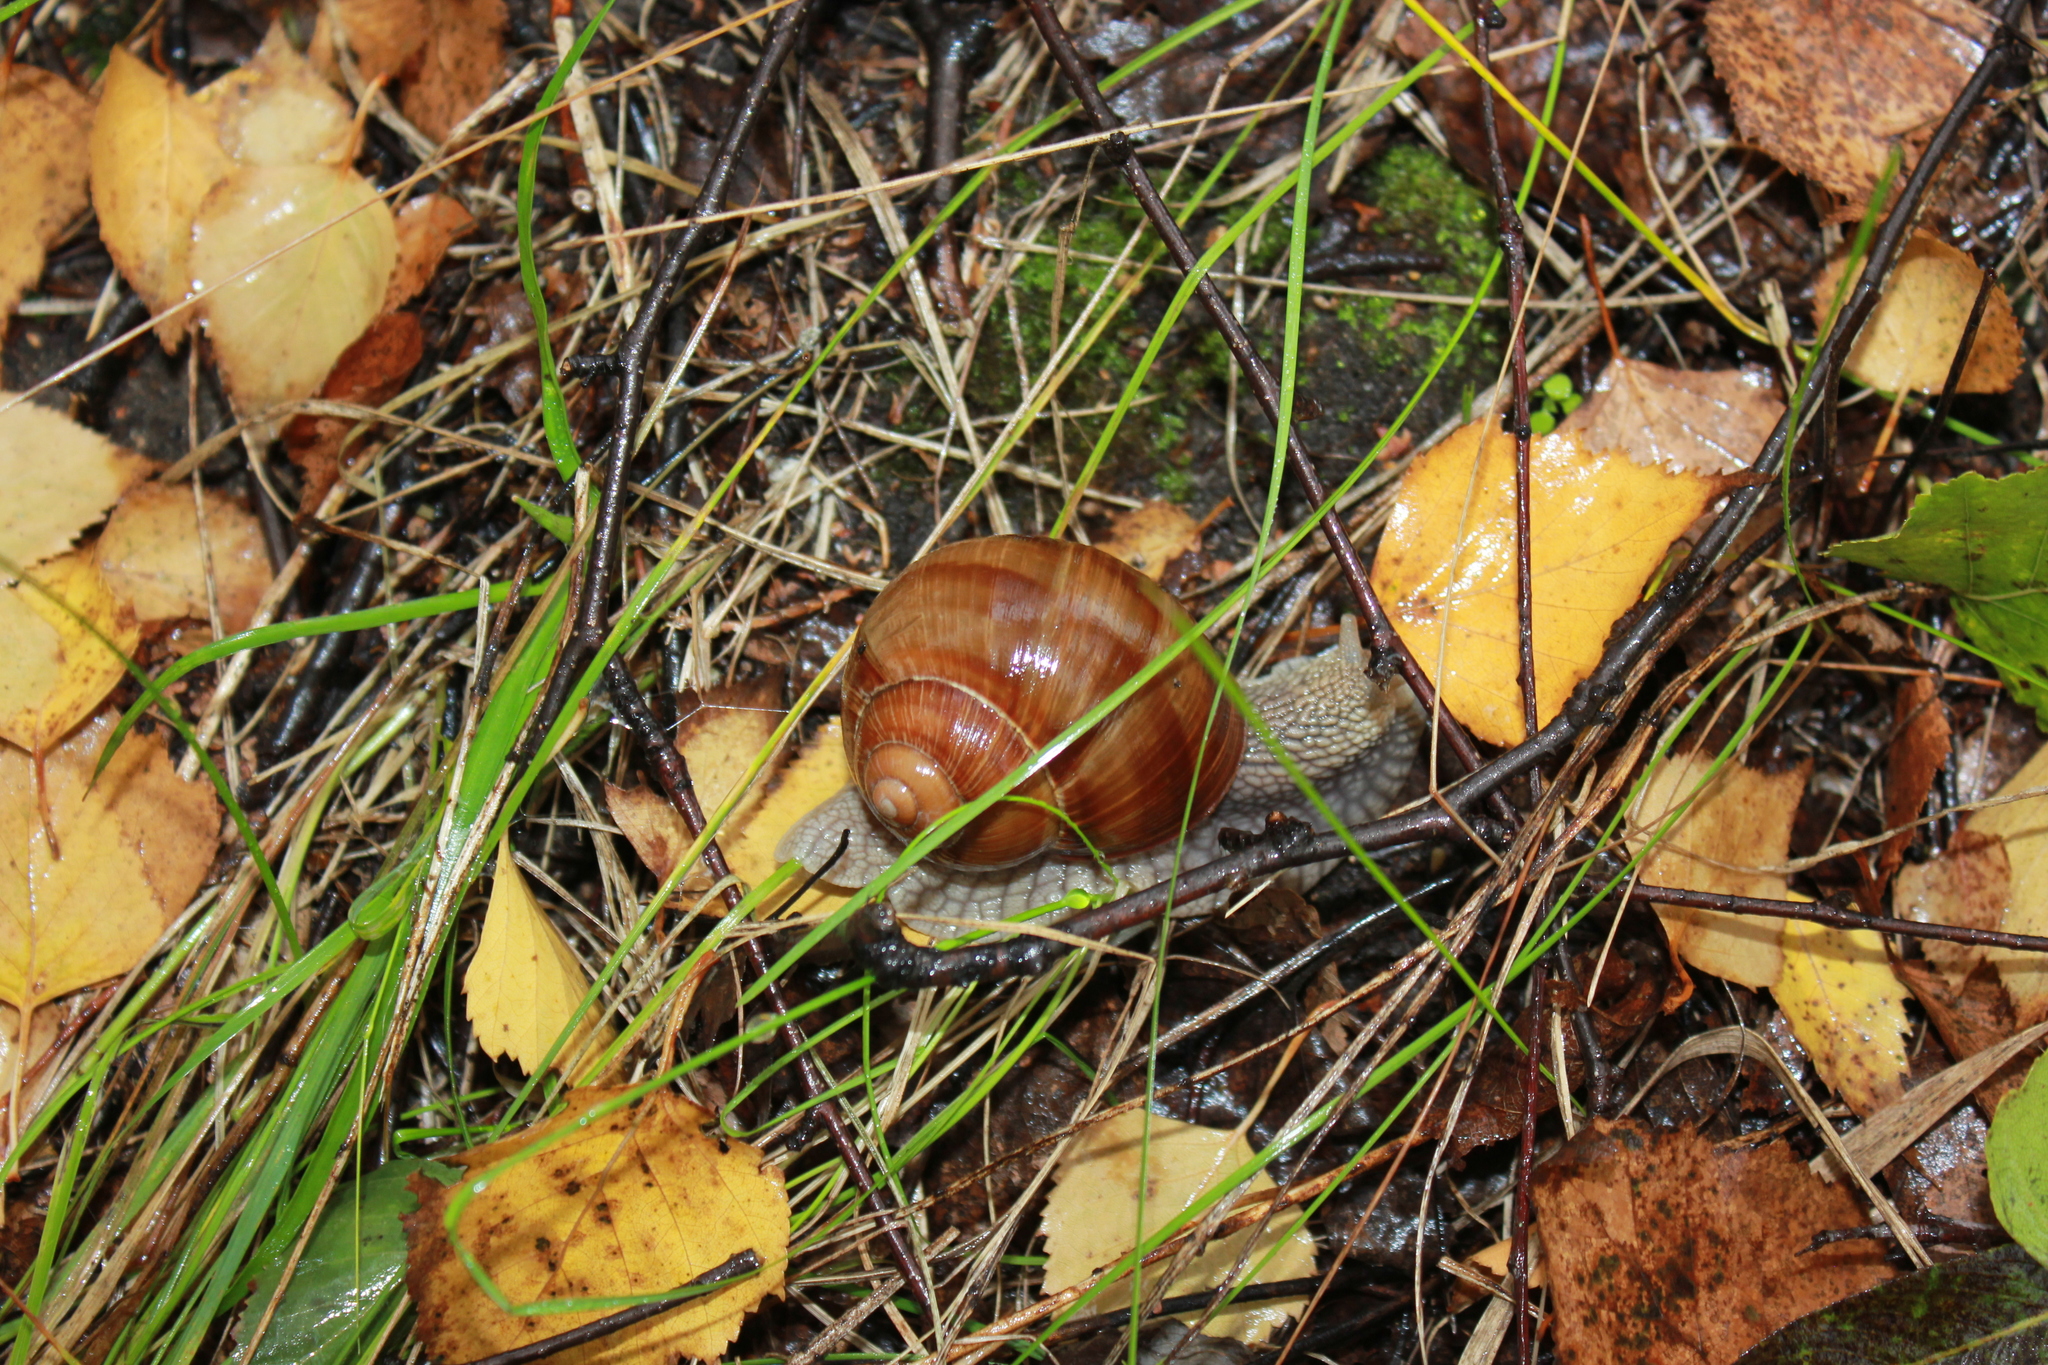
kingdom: Animalia
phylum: Mollusca
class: Gastropoda
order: Stylommatophora
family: Helicidae
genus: Helix
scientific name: Helix pomatia
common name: Roman snail
